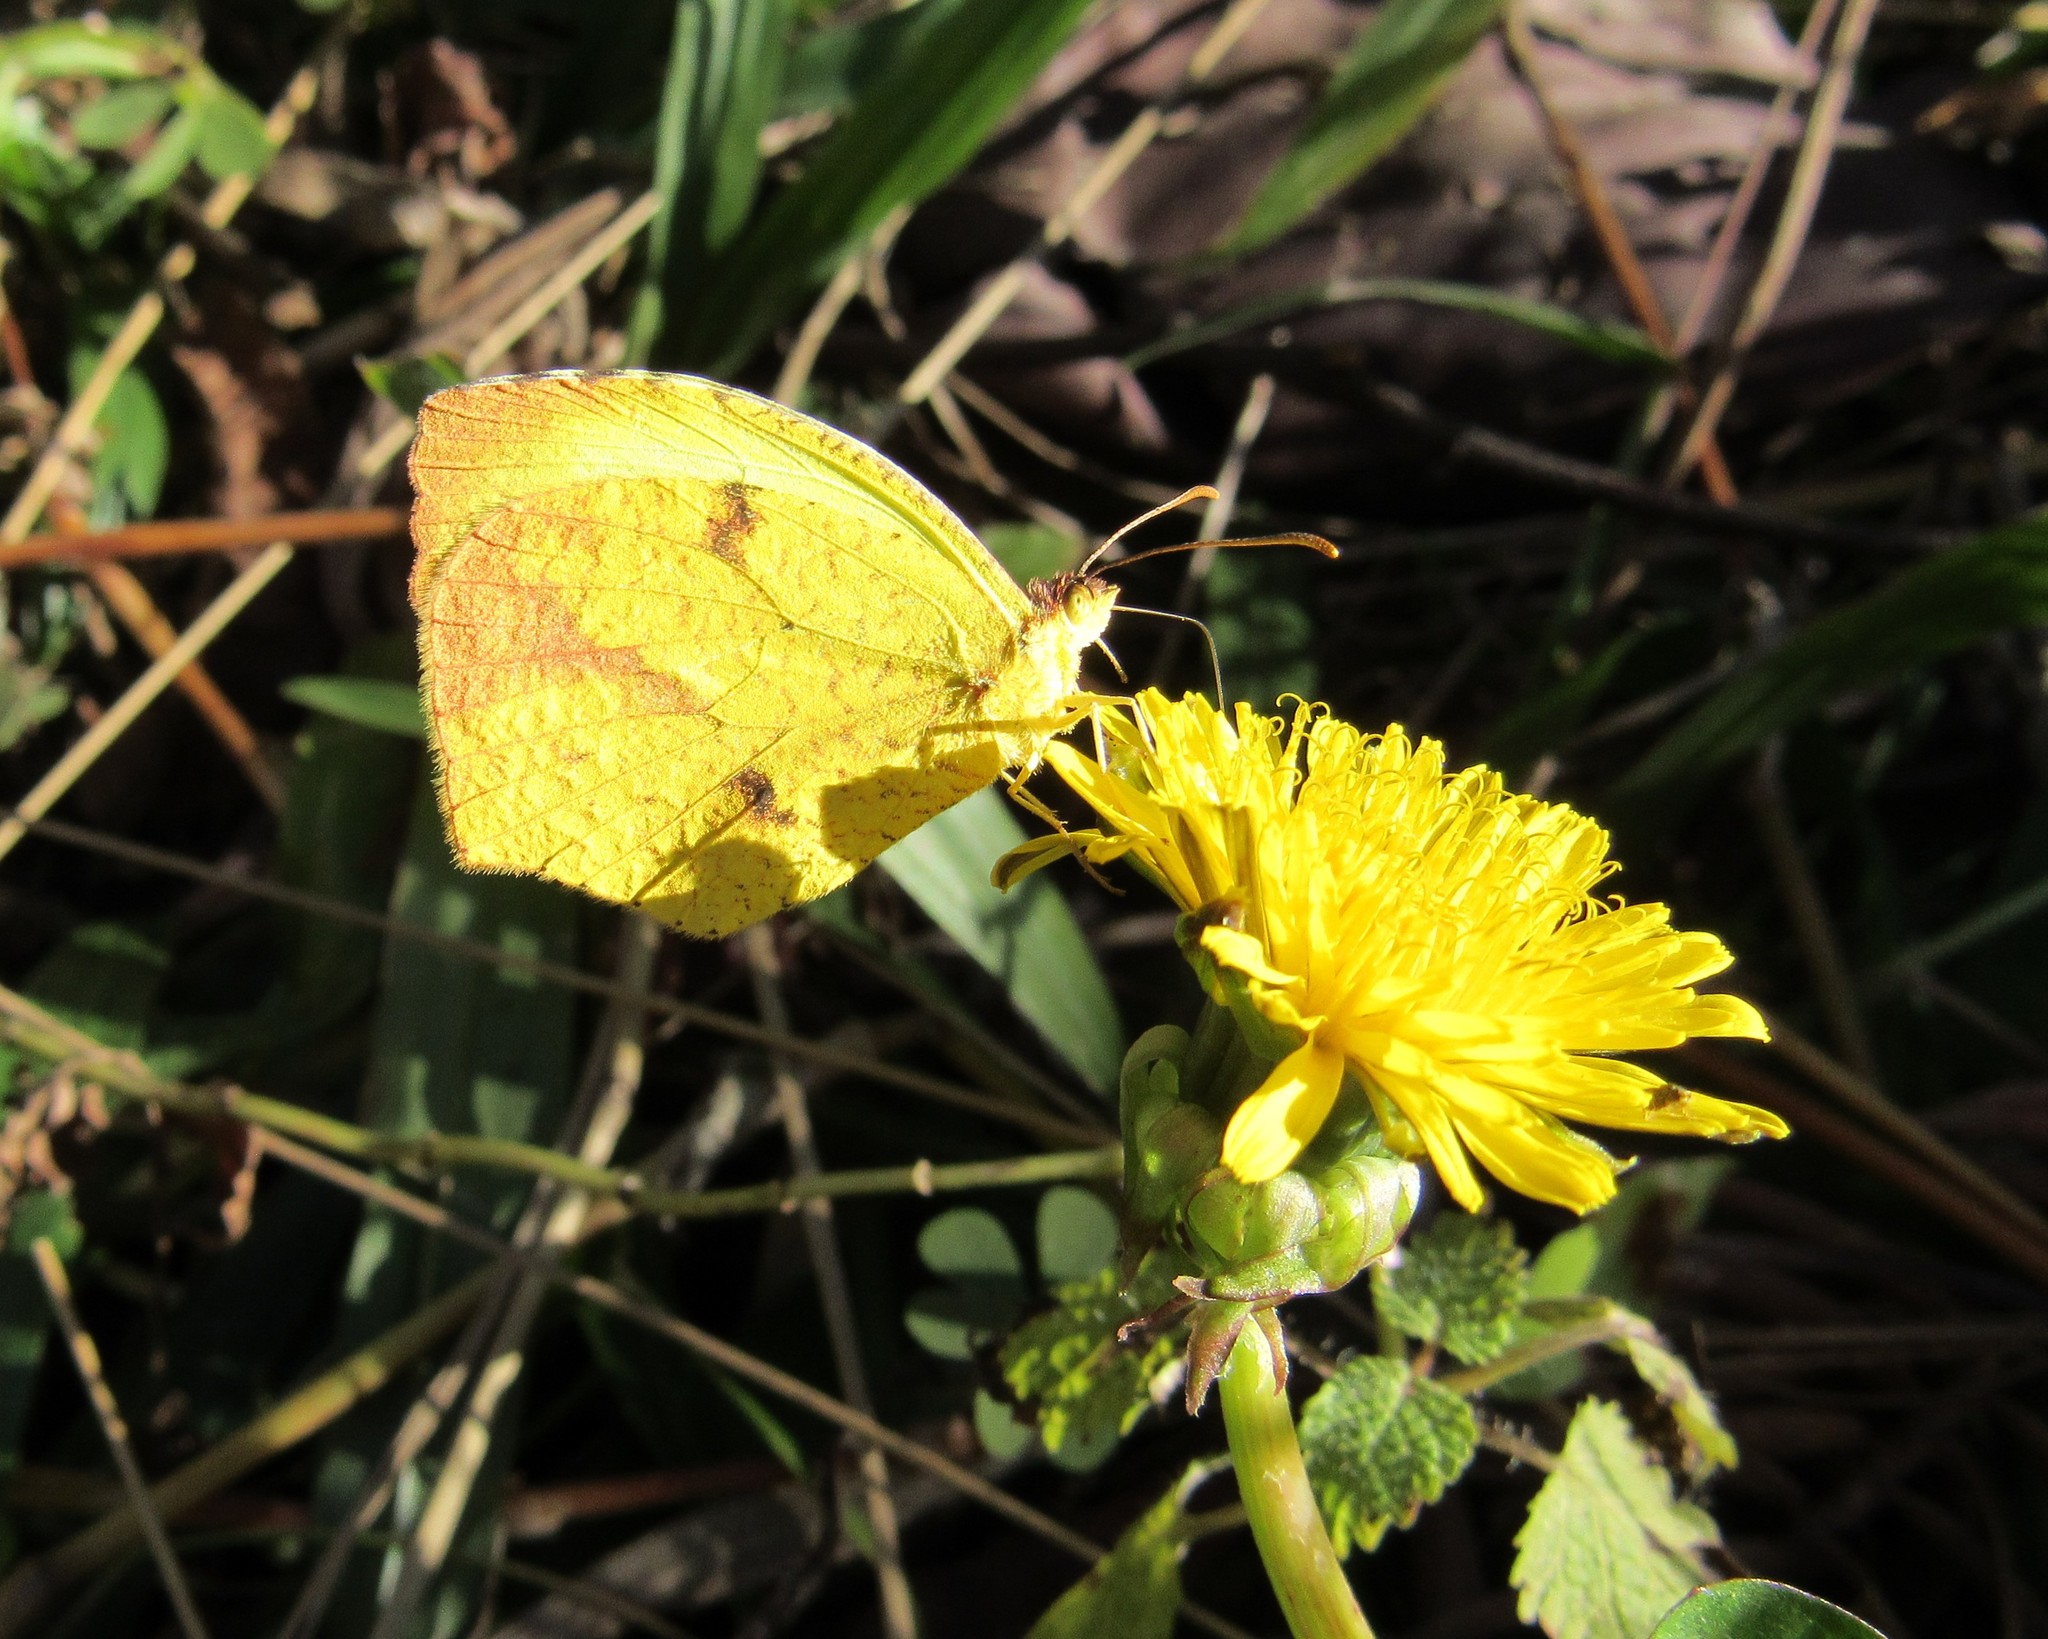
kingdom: Animalia
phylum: Arthropoda
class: Insecta
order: Lepidoptera
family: Pieridae
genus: Abaeis
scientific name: Abaeis
